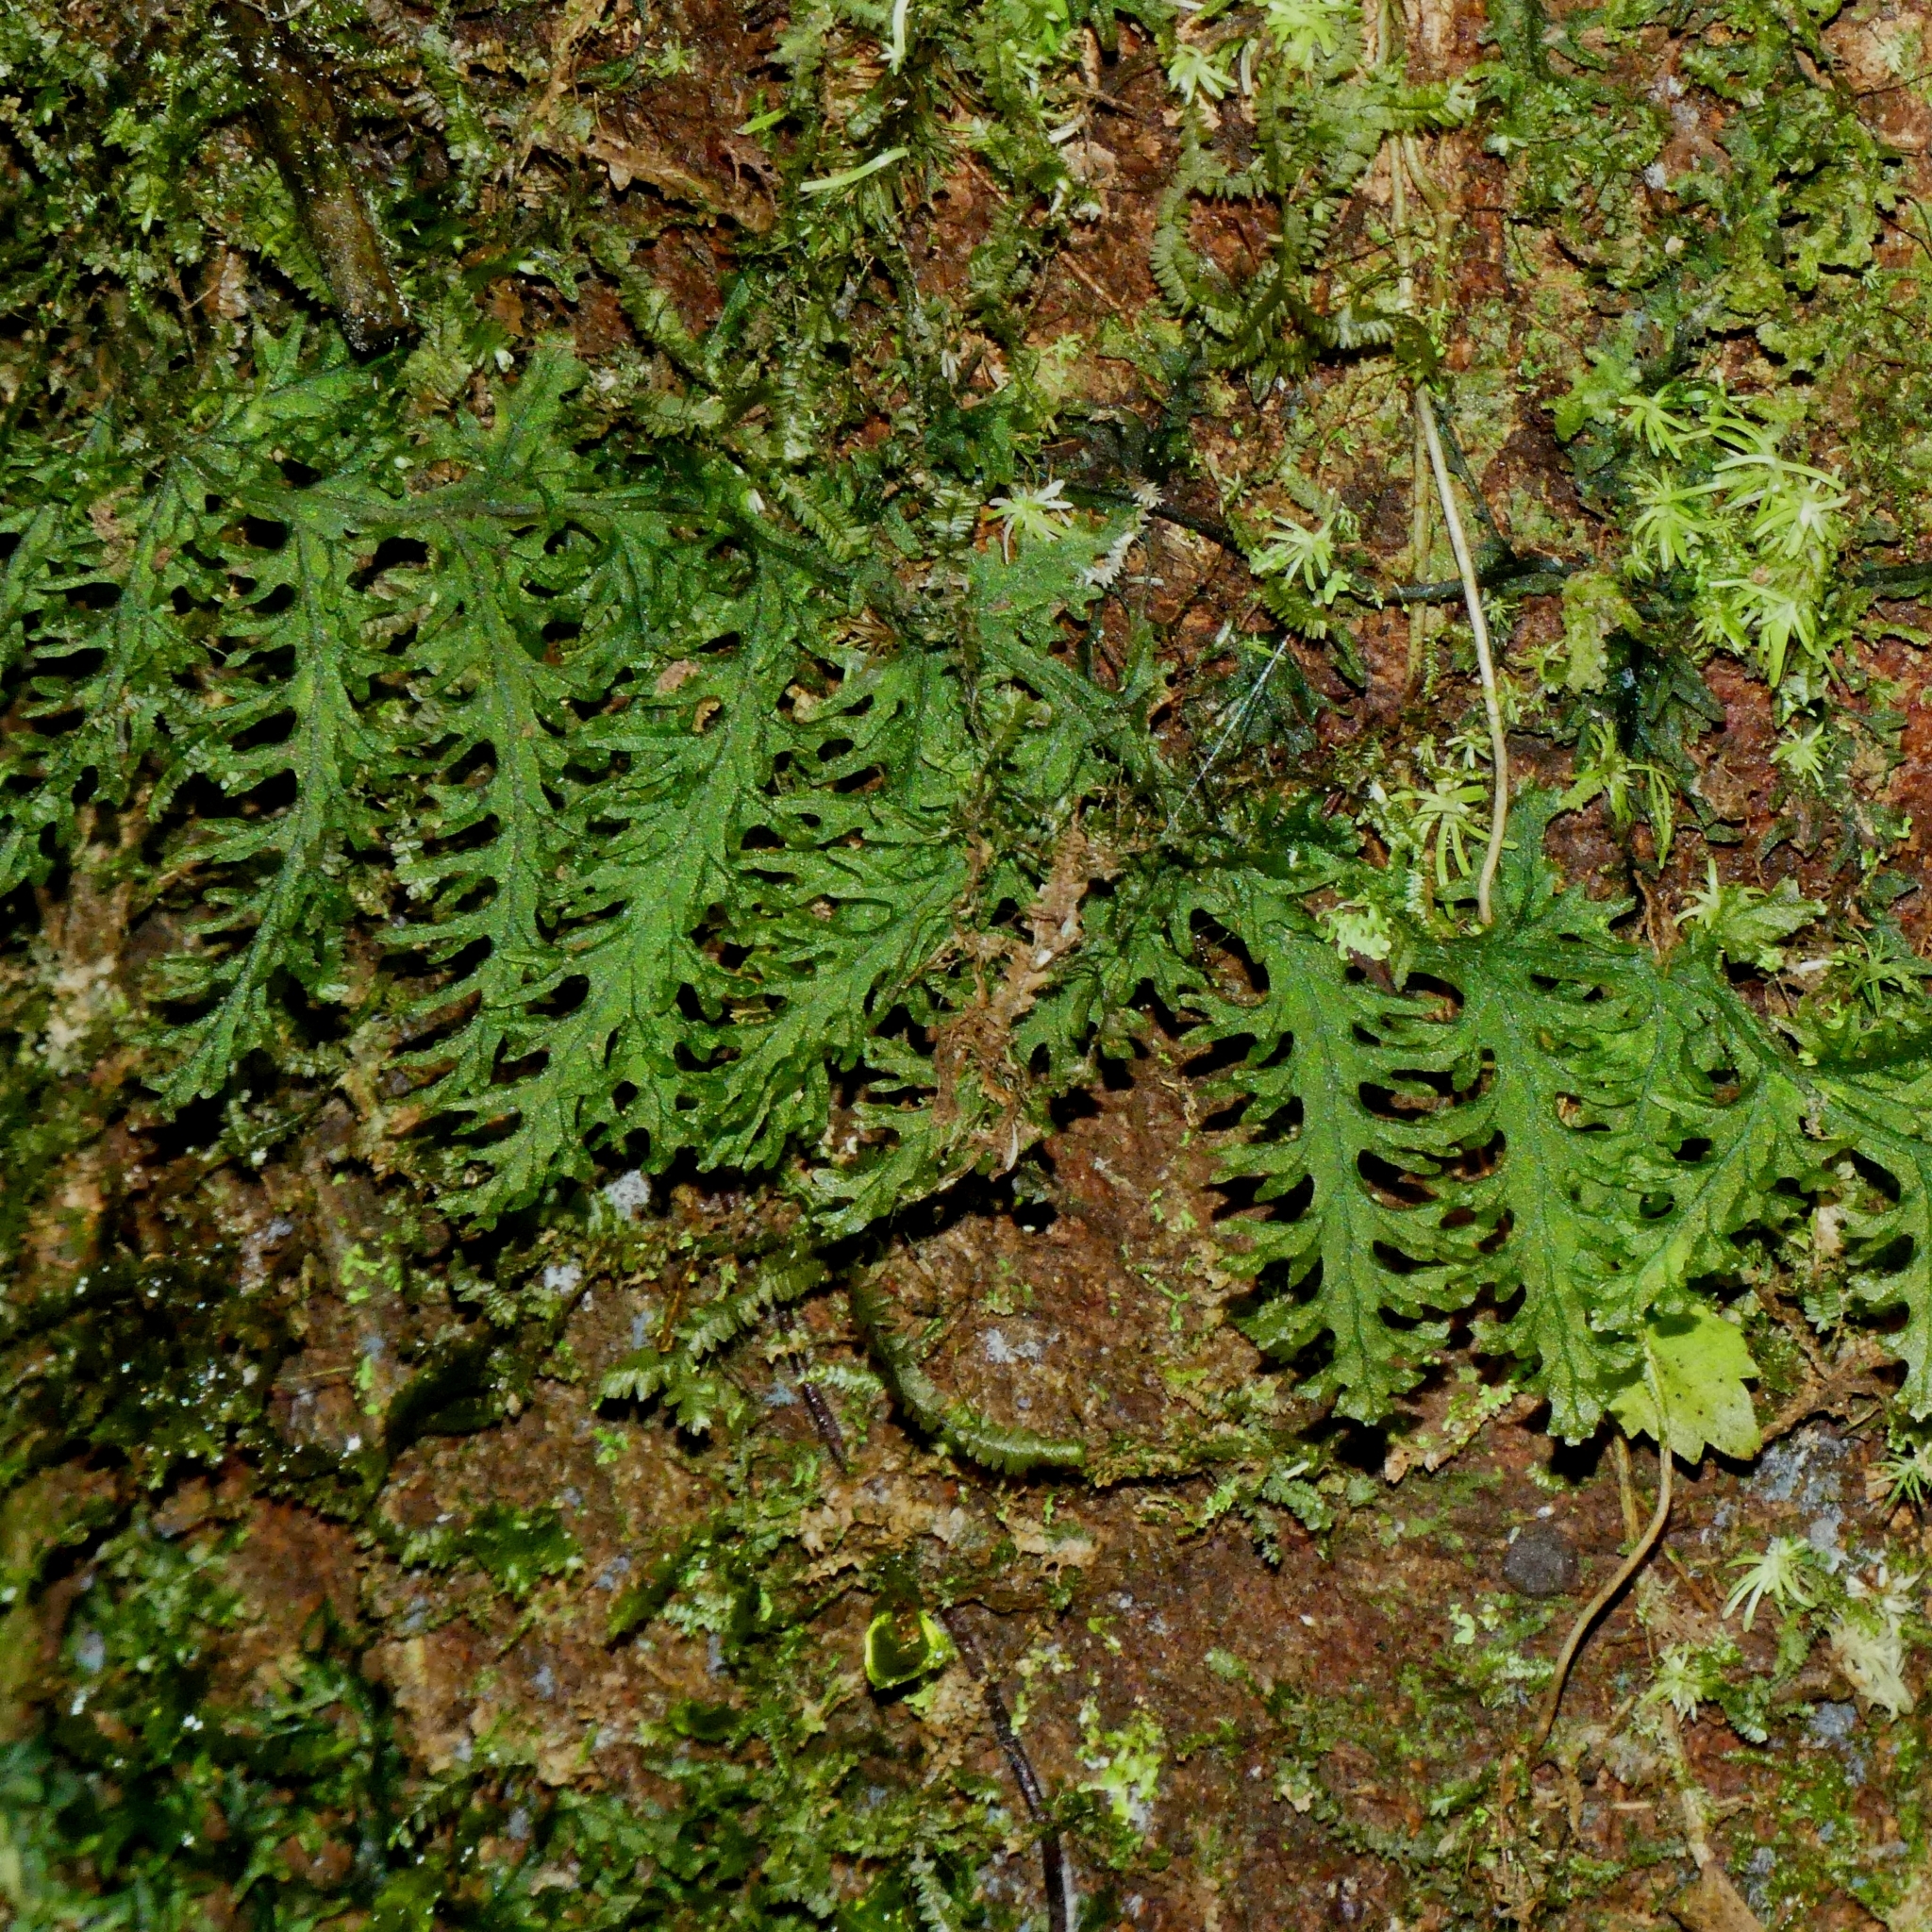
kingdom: Plantae
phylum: Tracheophyta
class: Polypodiopsida
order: Hymenophyllales
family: Hymenophyllaceae
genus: Trichomanes
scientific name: Trichomanes pedicellatum
